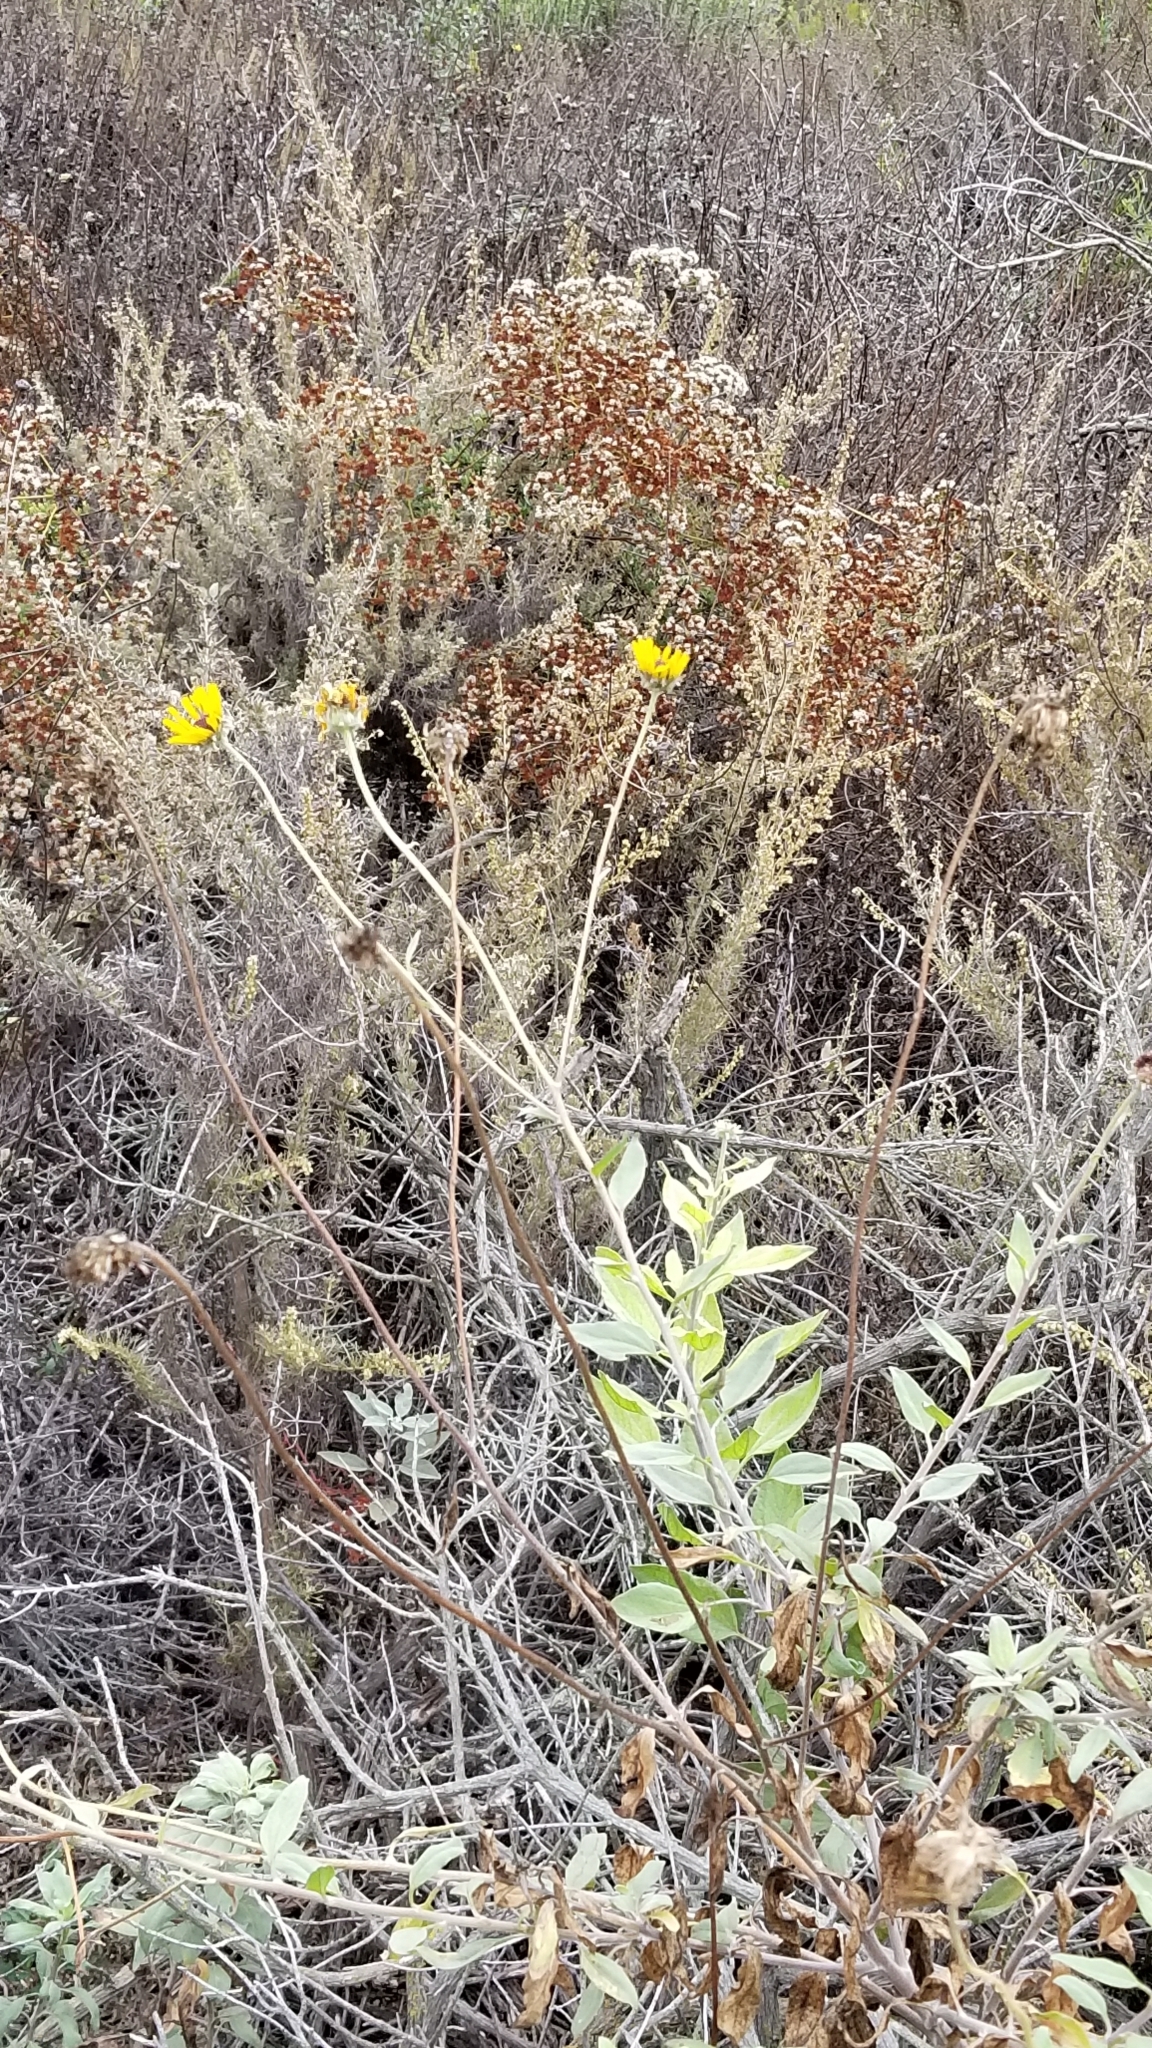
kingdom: Plantae
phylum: Tracheophyta
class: Magnoliopsida
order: Asterales
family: Asteraceae
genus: Encelia
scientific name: Encelia californica
